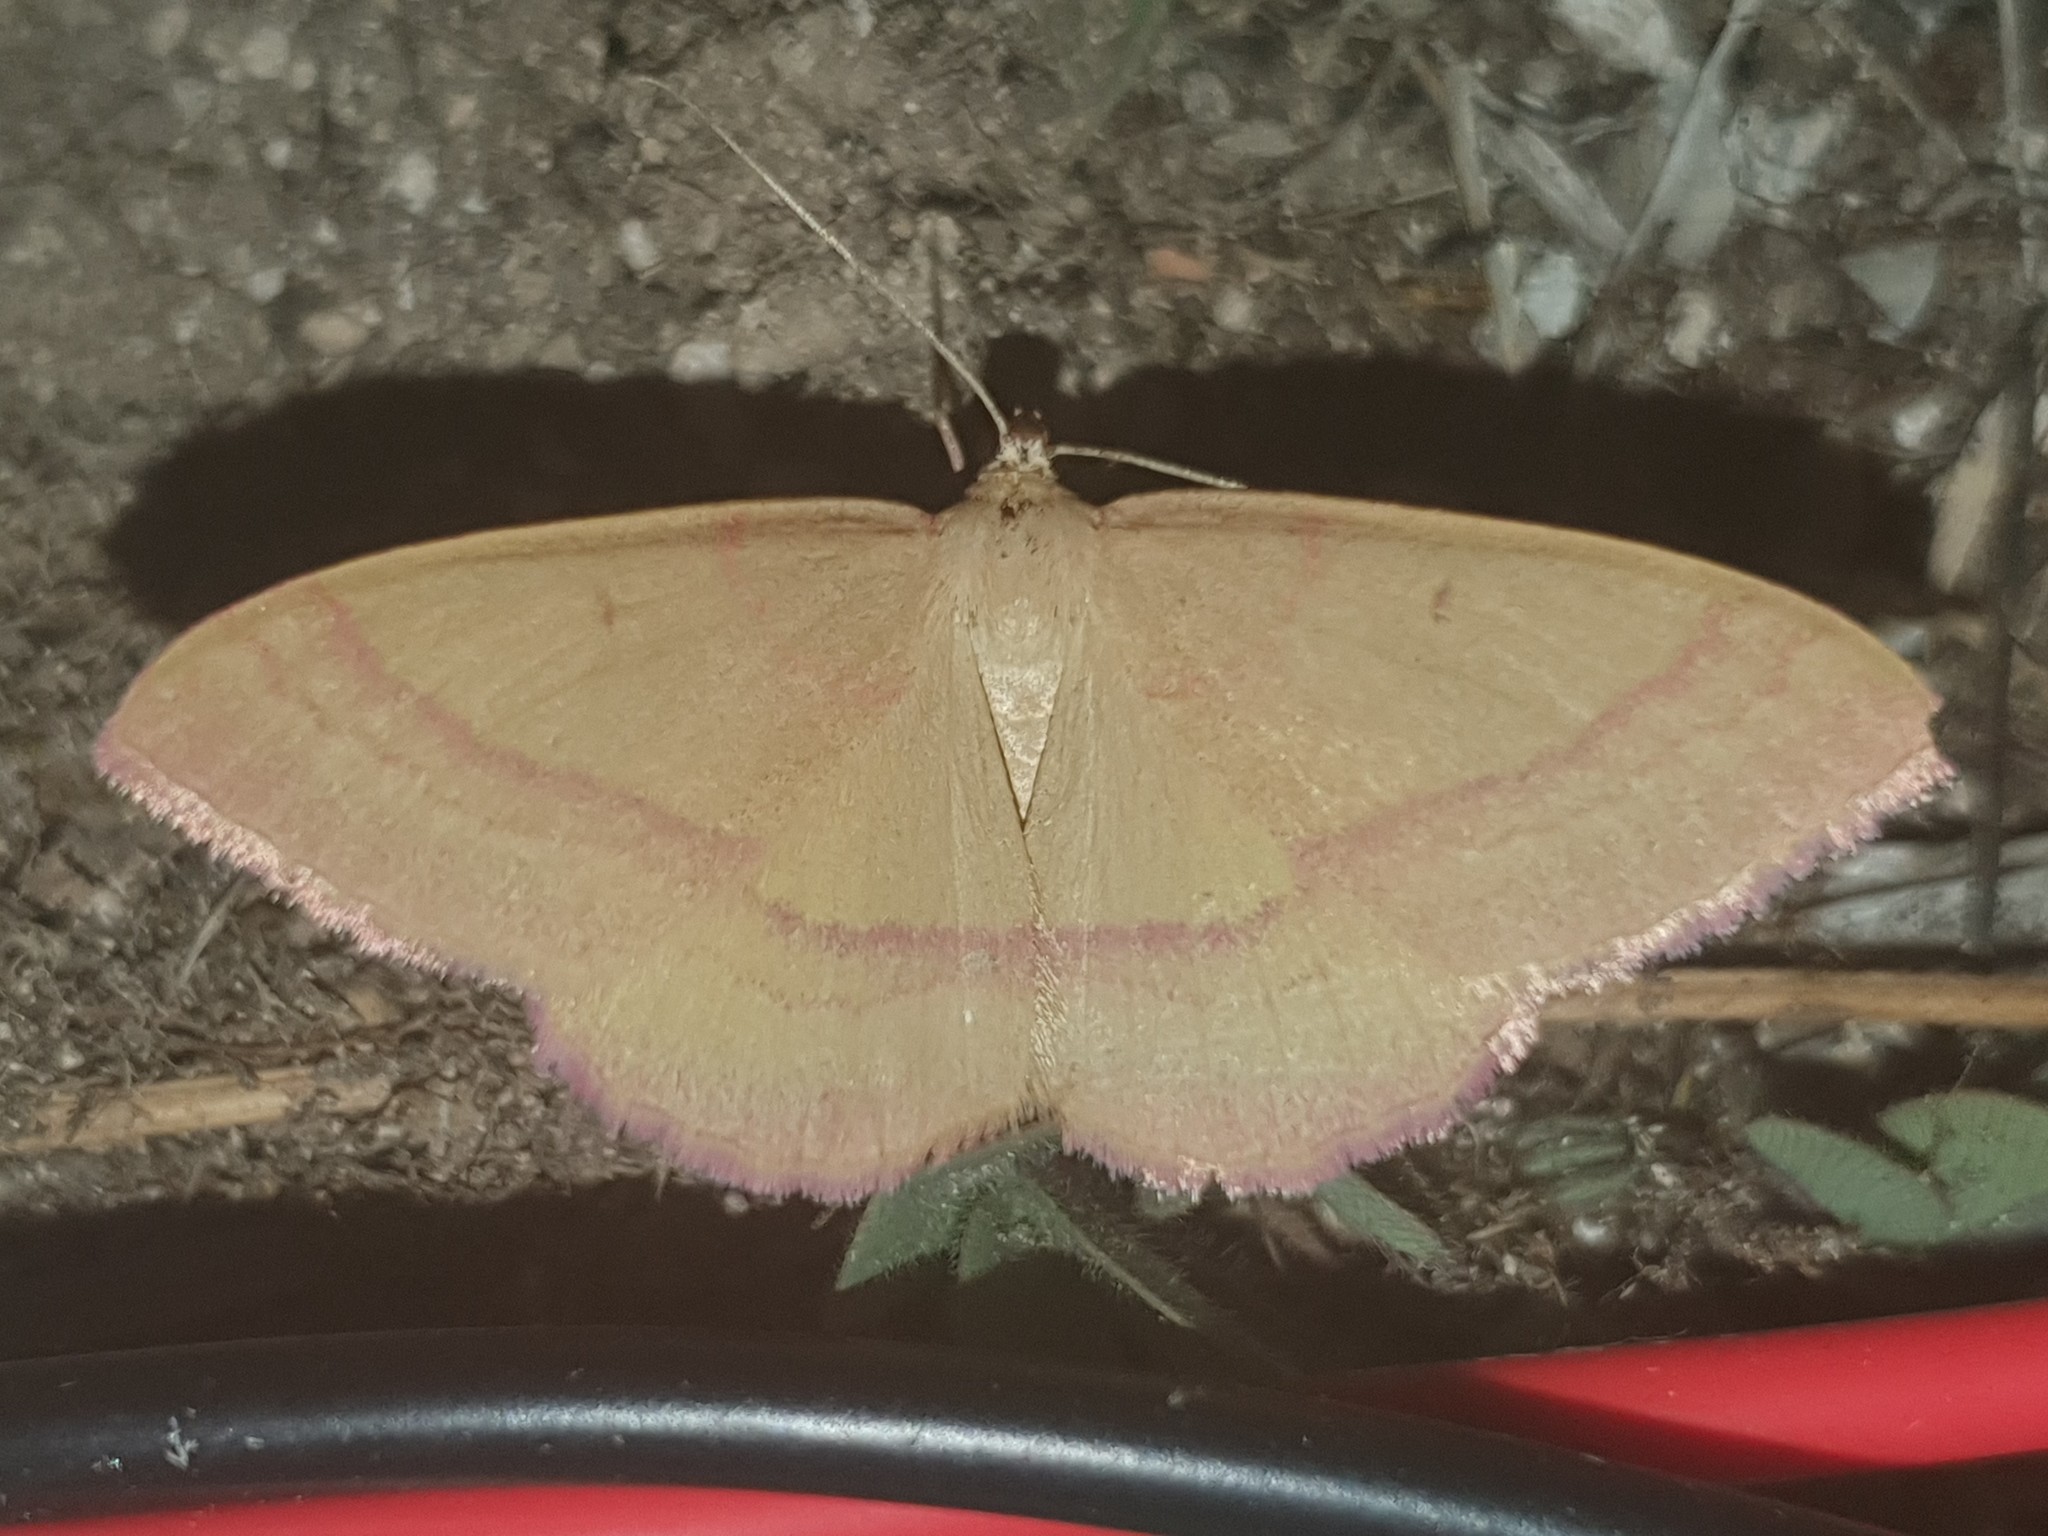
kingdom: Animalia
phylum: Arthropoda
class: Insecta
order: Lepidoptera
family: Geometridae
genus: Rhodostrophia
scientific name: Rhodostrophia calabra
